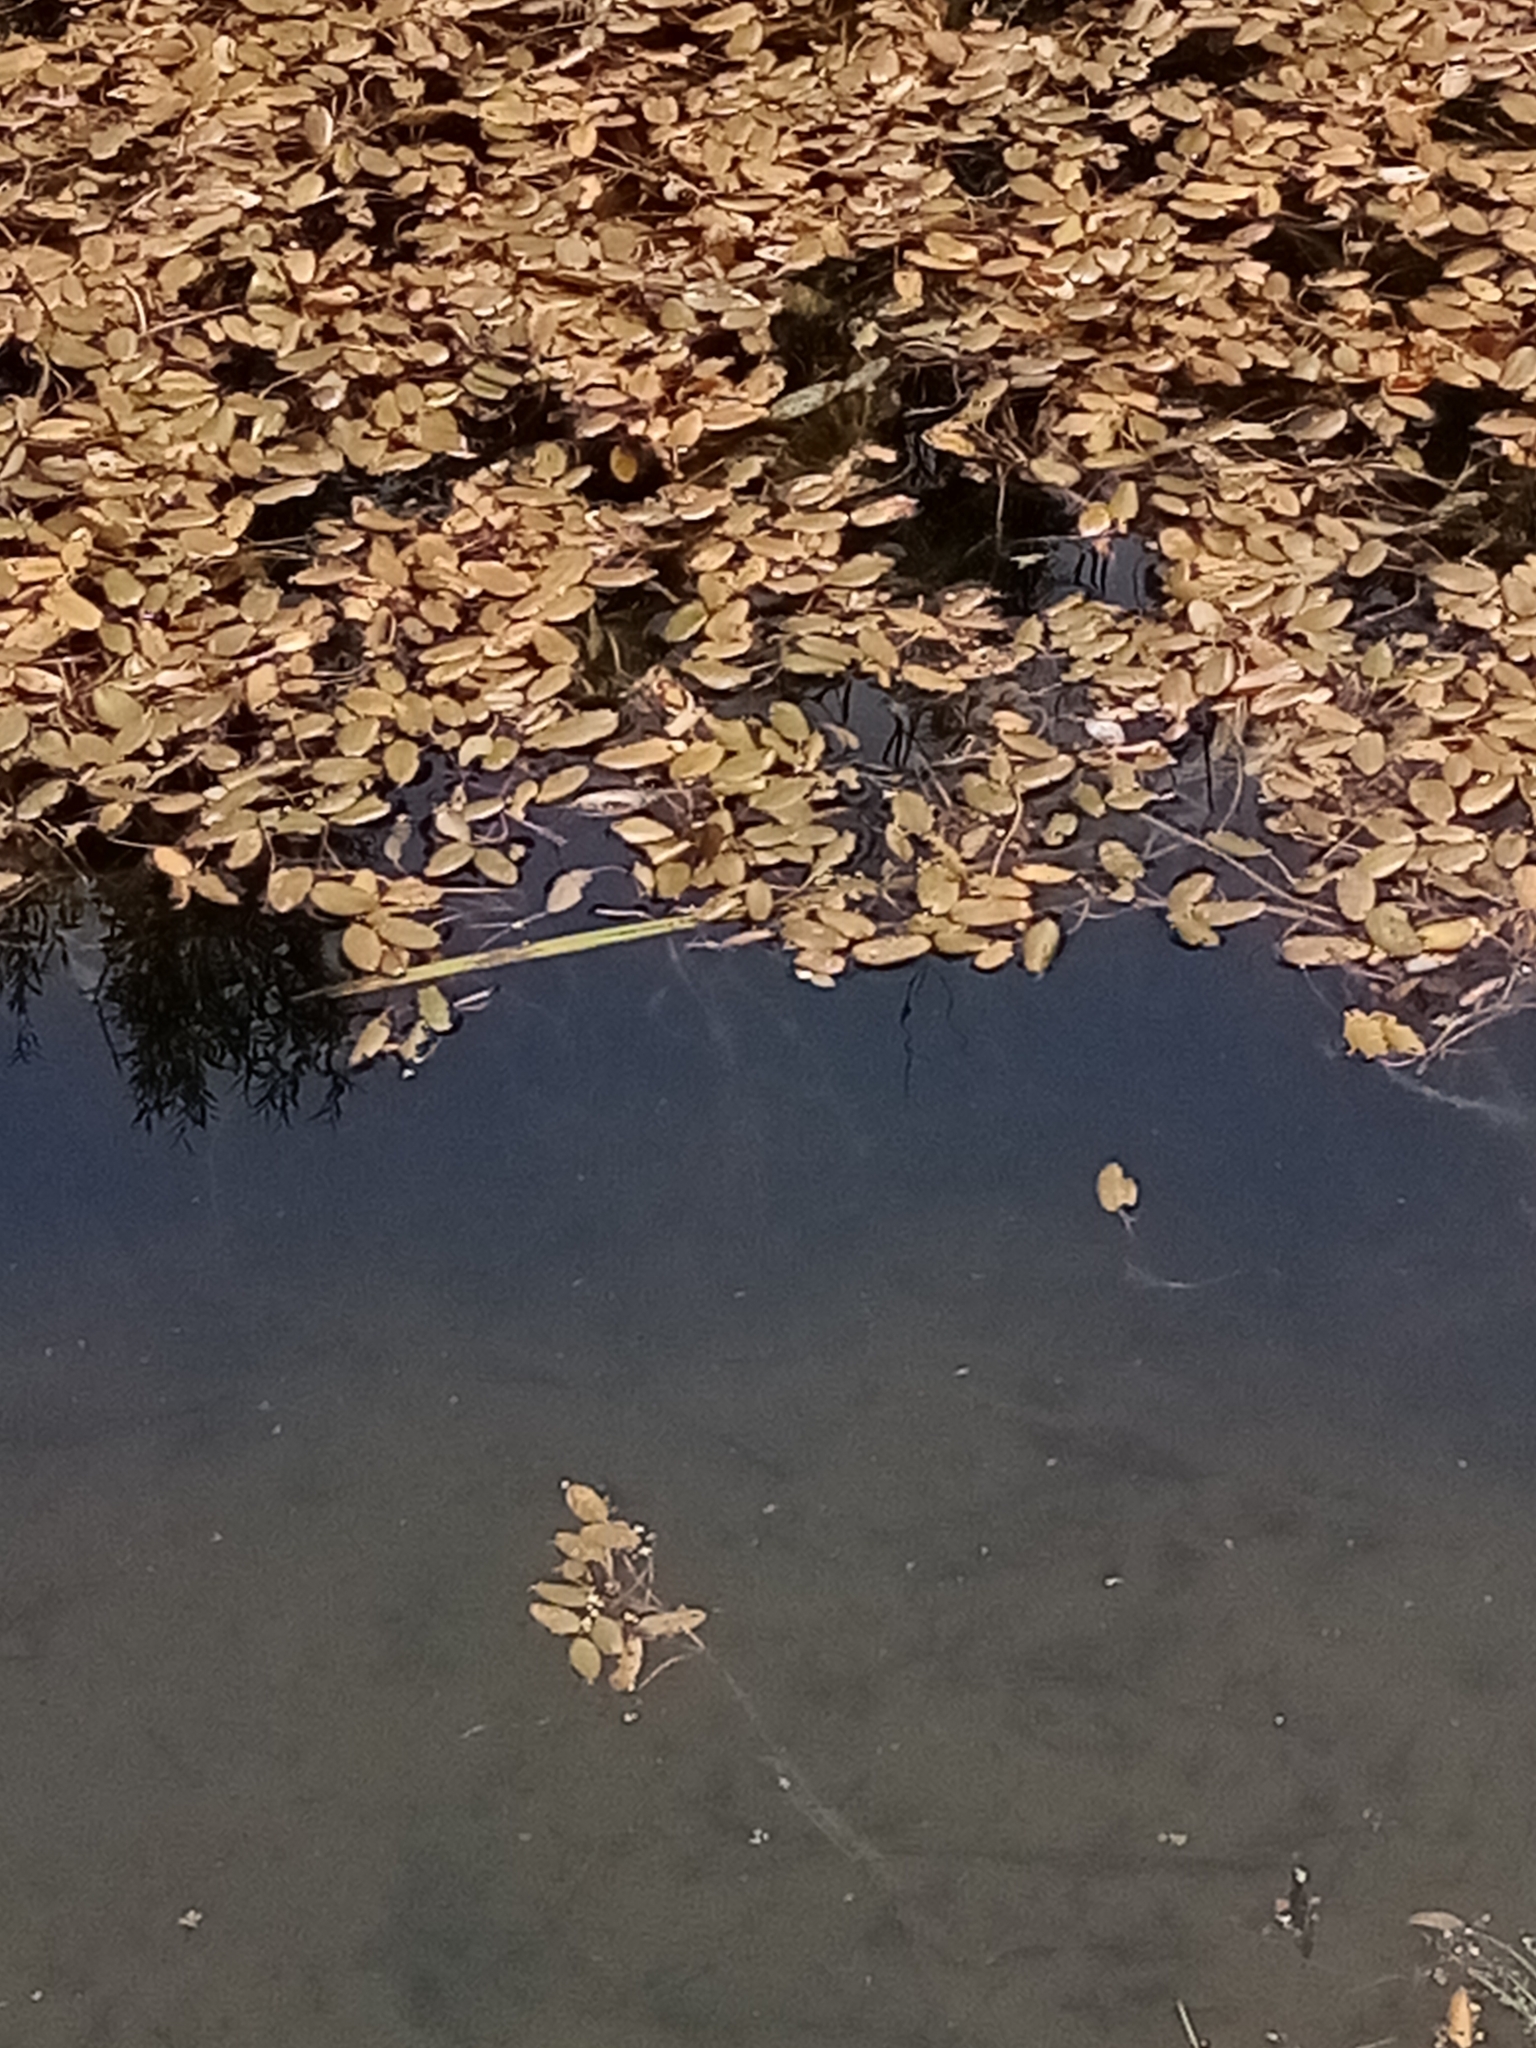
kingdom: Plantae
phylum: Tracheophyta
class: Liliopsida
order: Alismatales
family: Potamogetonaceae
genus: Potamogeton
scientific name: Potamogeton cheesemanii
